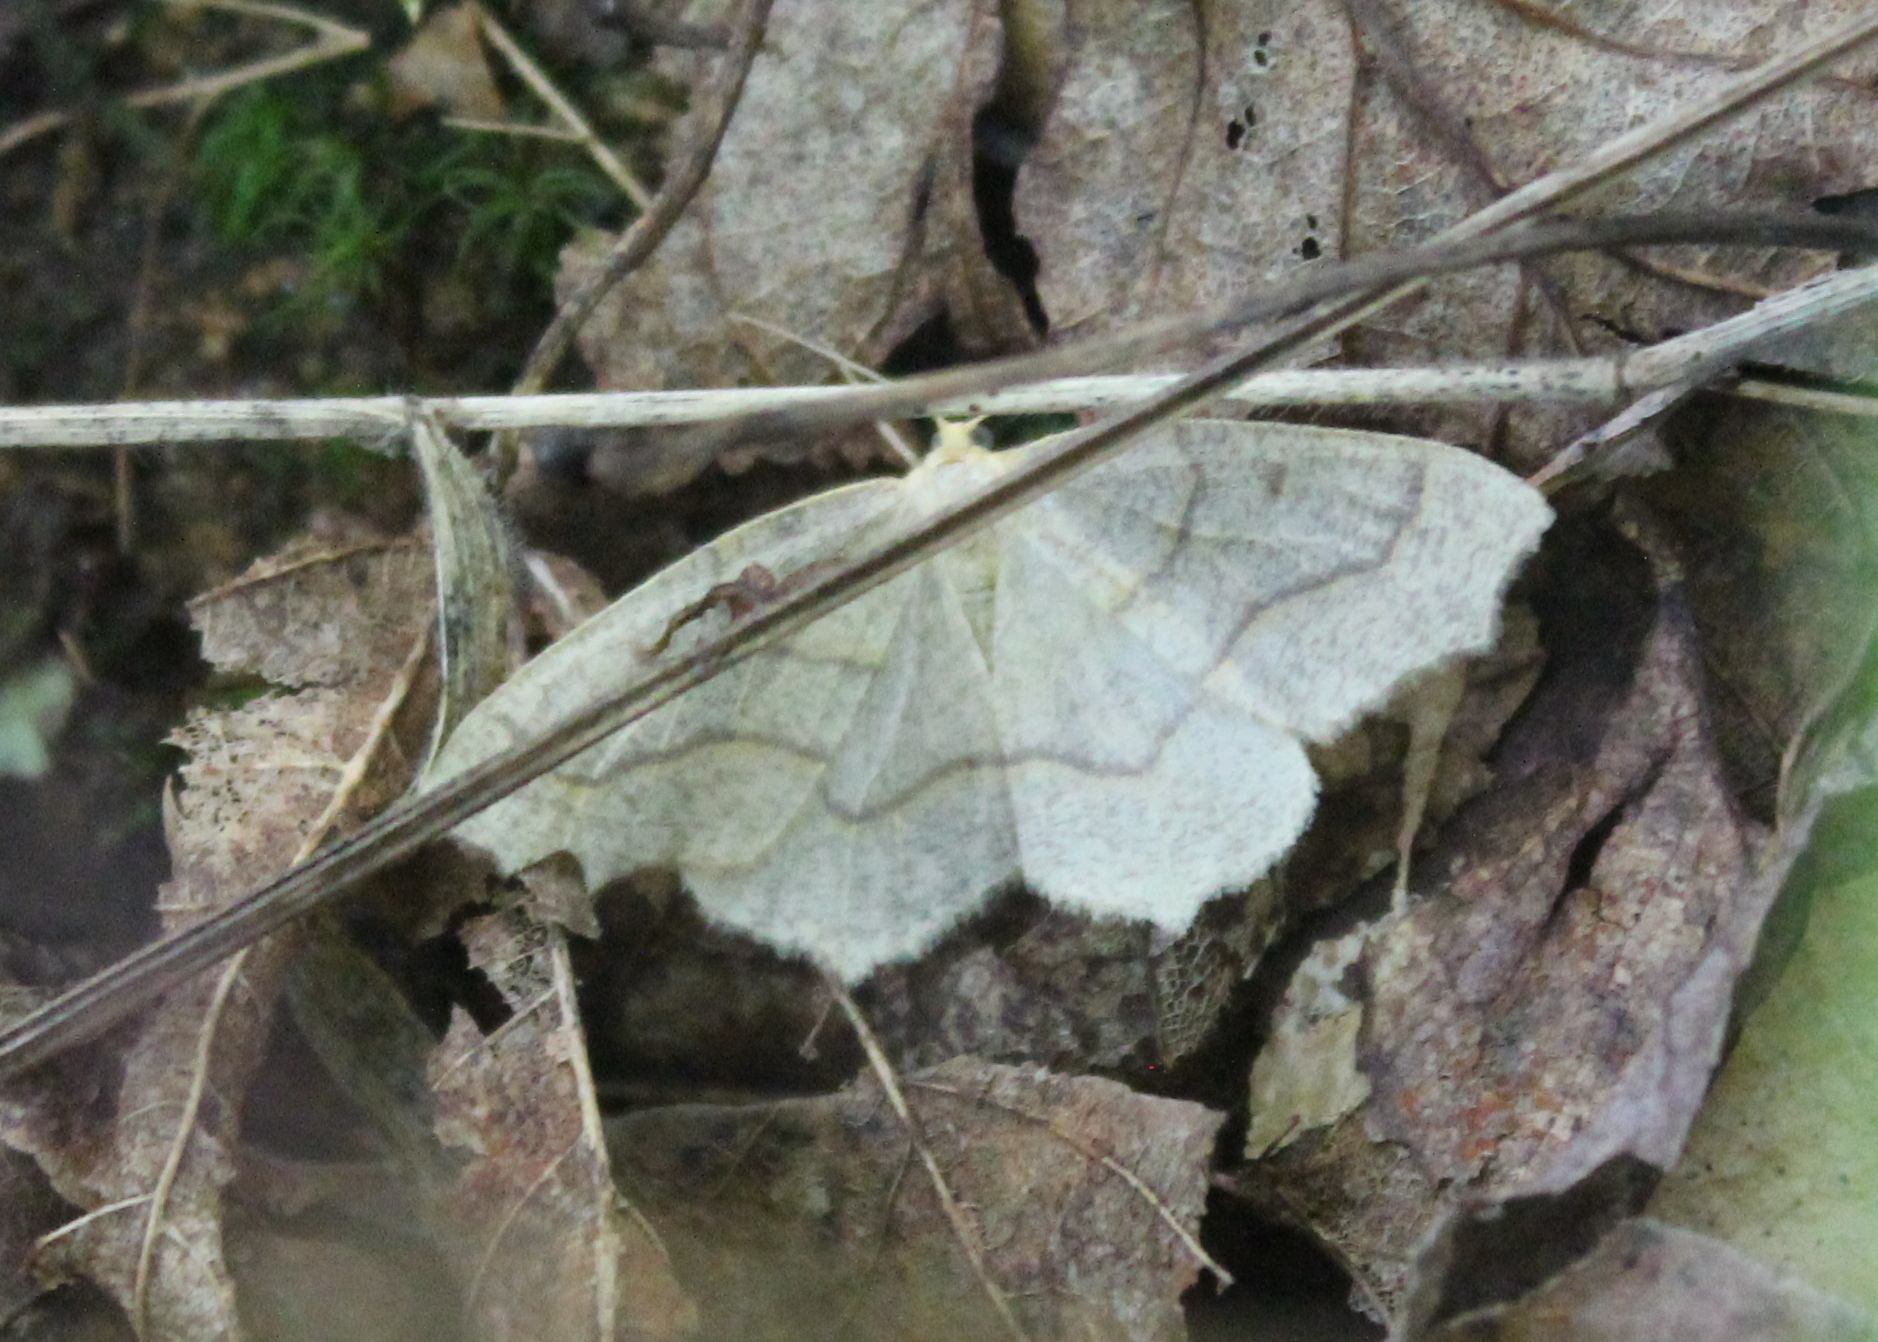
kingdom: Animalia
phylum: Arthropoda
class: Insecta
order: Lepidoptera
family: Geometridae
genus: Lambdina
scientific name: Lambdina fiscellaria
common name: Hemlock looper
